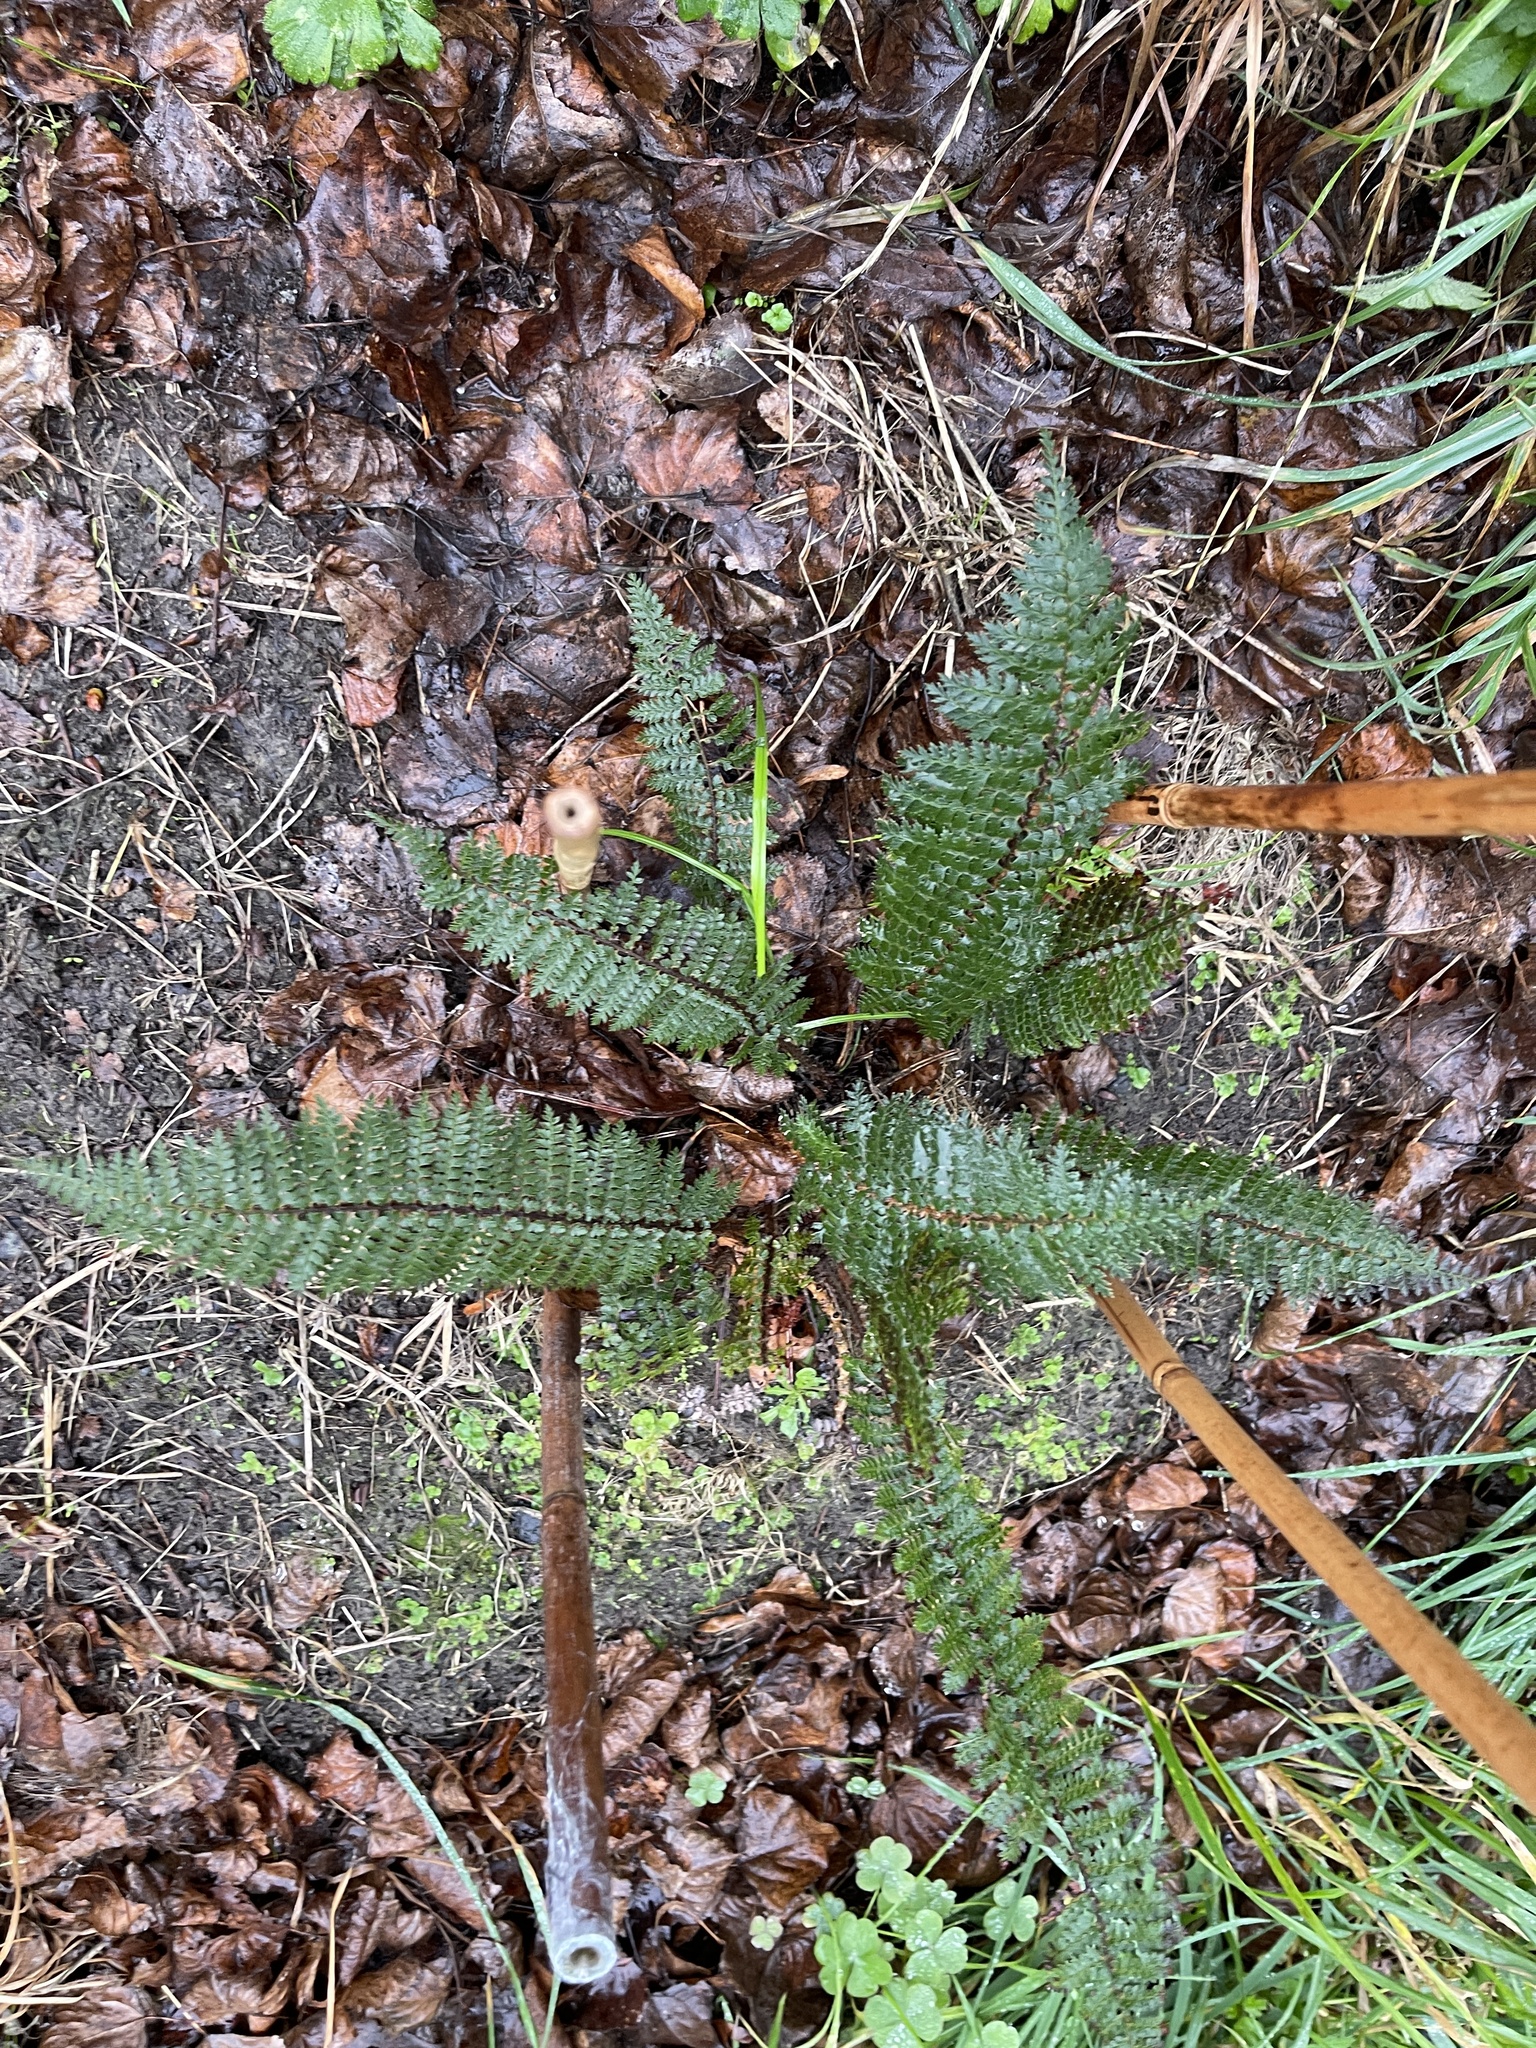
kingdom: Plantae
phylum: Tracheophyta
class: Polypodiopsida
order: Polypodiales
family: Dryopteridaceae
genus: Polystichum
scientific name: Polystichum vestitum
